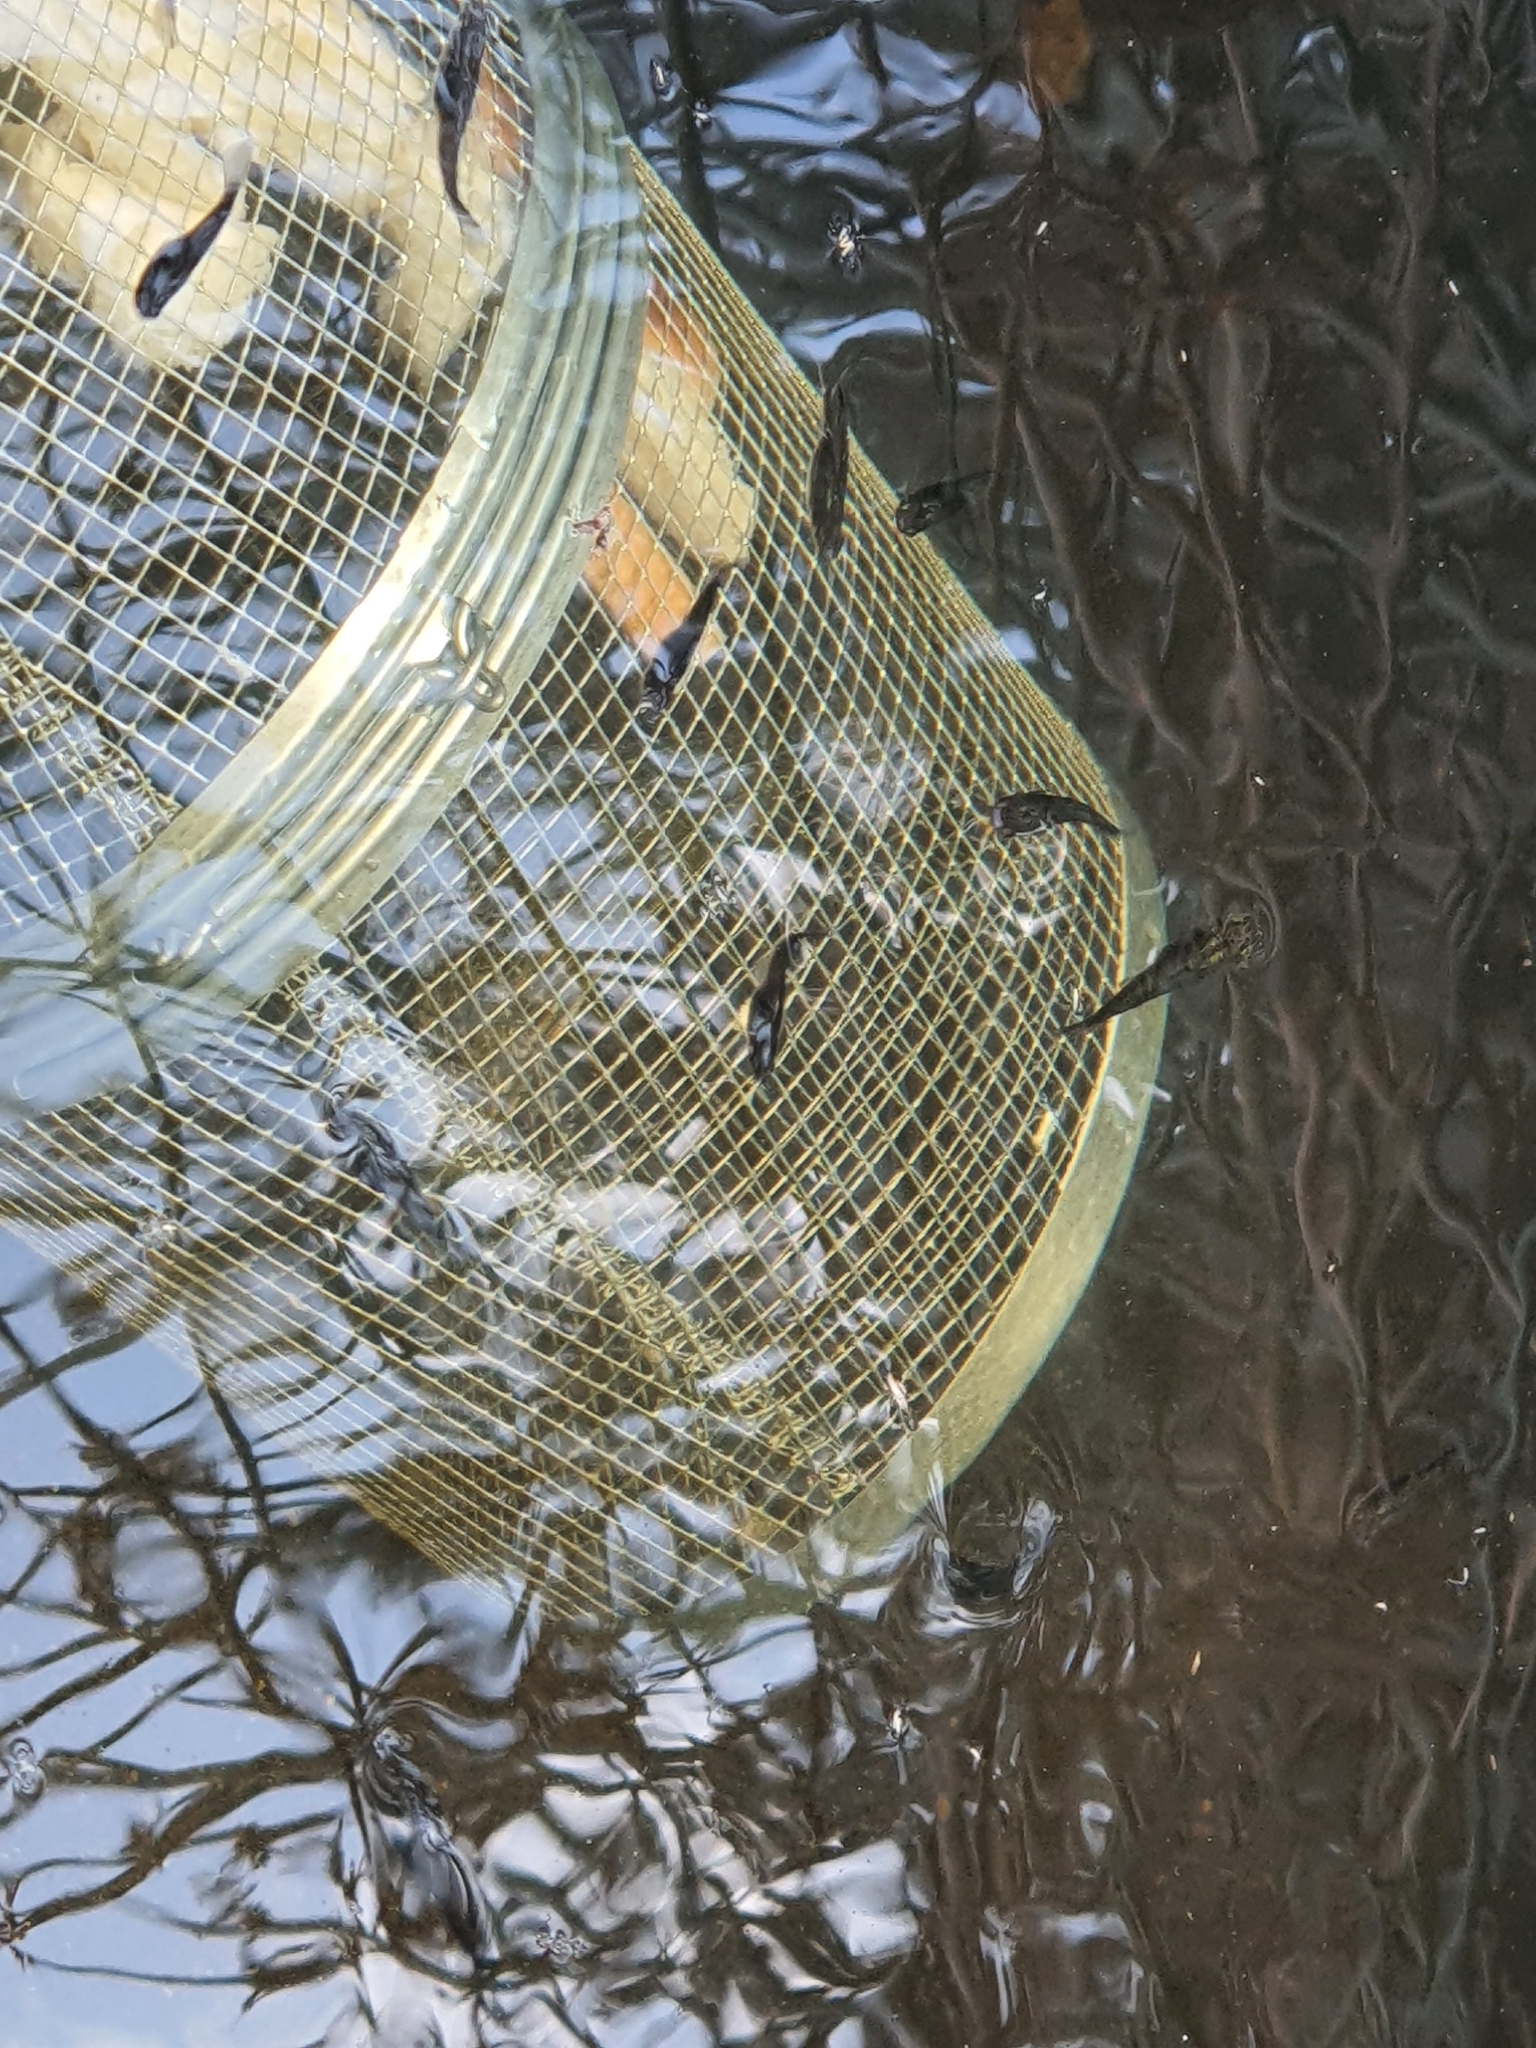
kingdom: Animalia
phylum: Chordata
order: Cyprinodontiformes
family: Poeciliidae
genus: Gambusia
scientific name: Gambusia holbrooki
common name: Eastern mosquitofish
